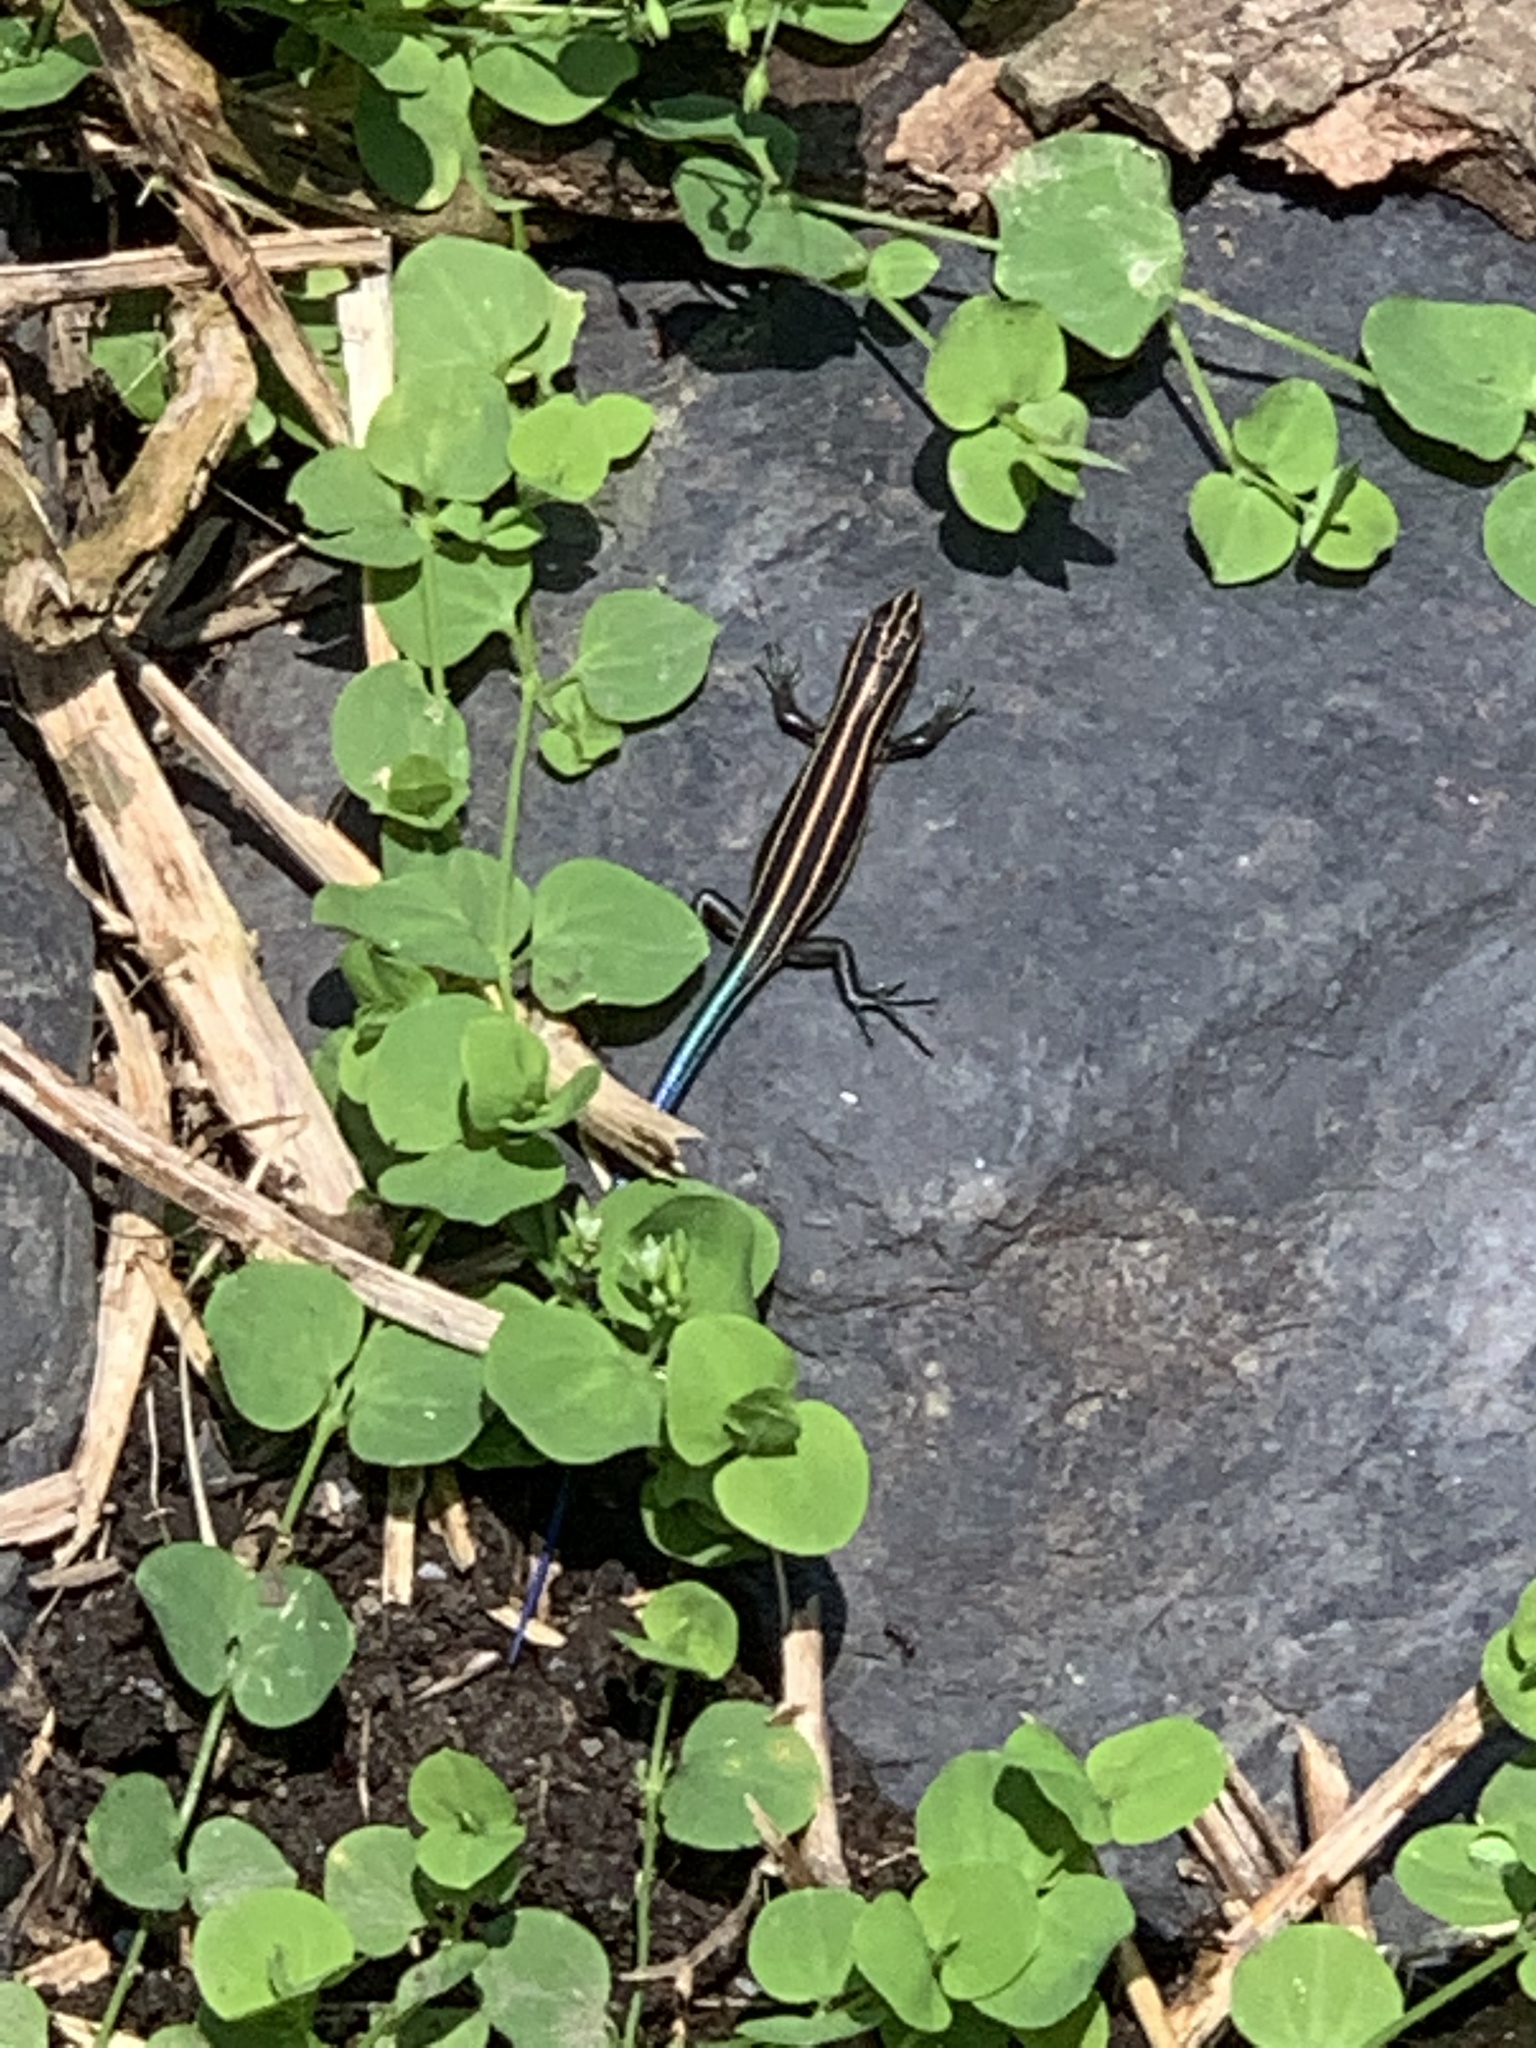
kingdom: Animalia
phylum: Chordata
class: Squamata
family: Scincidae
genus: Plestiodon
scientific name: Plestiodon elegans
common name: Shanghai elegant skink
